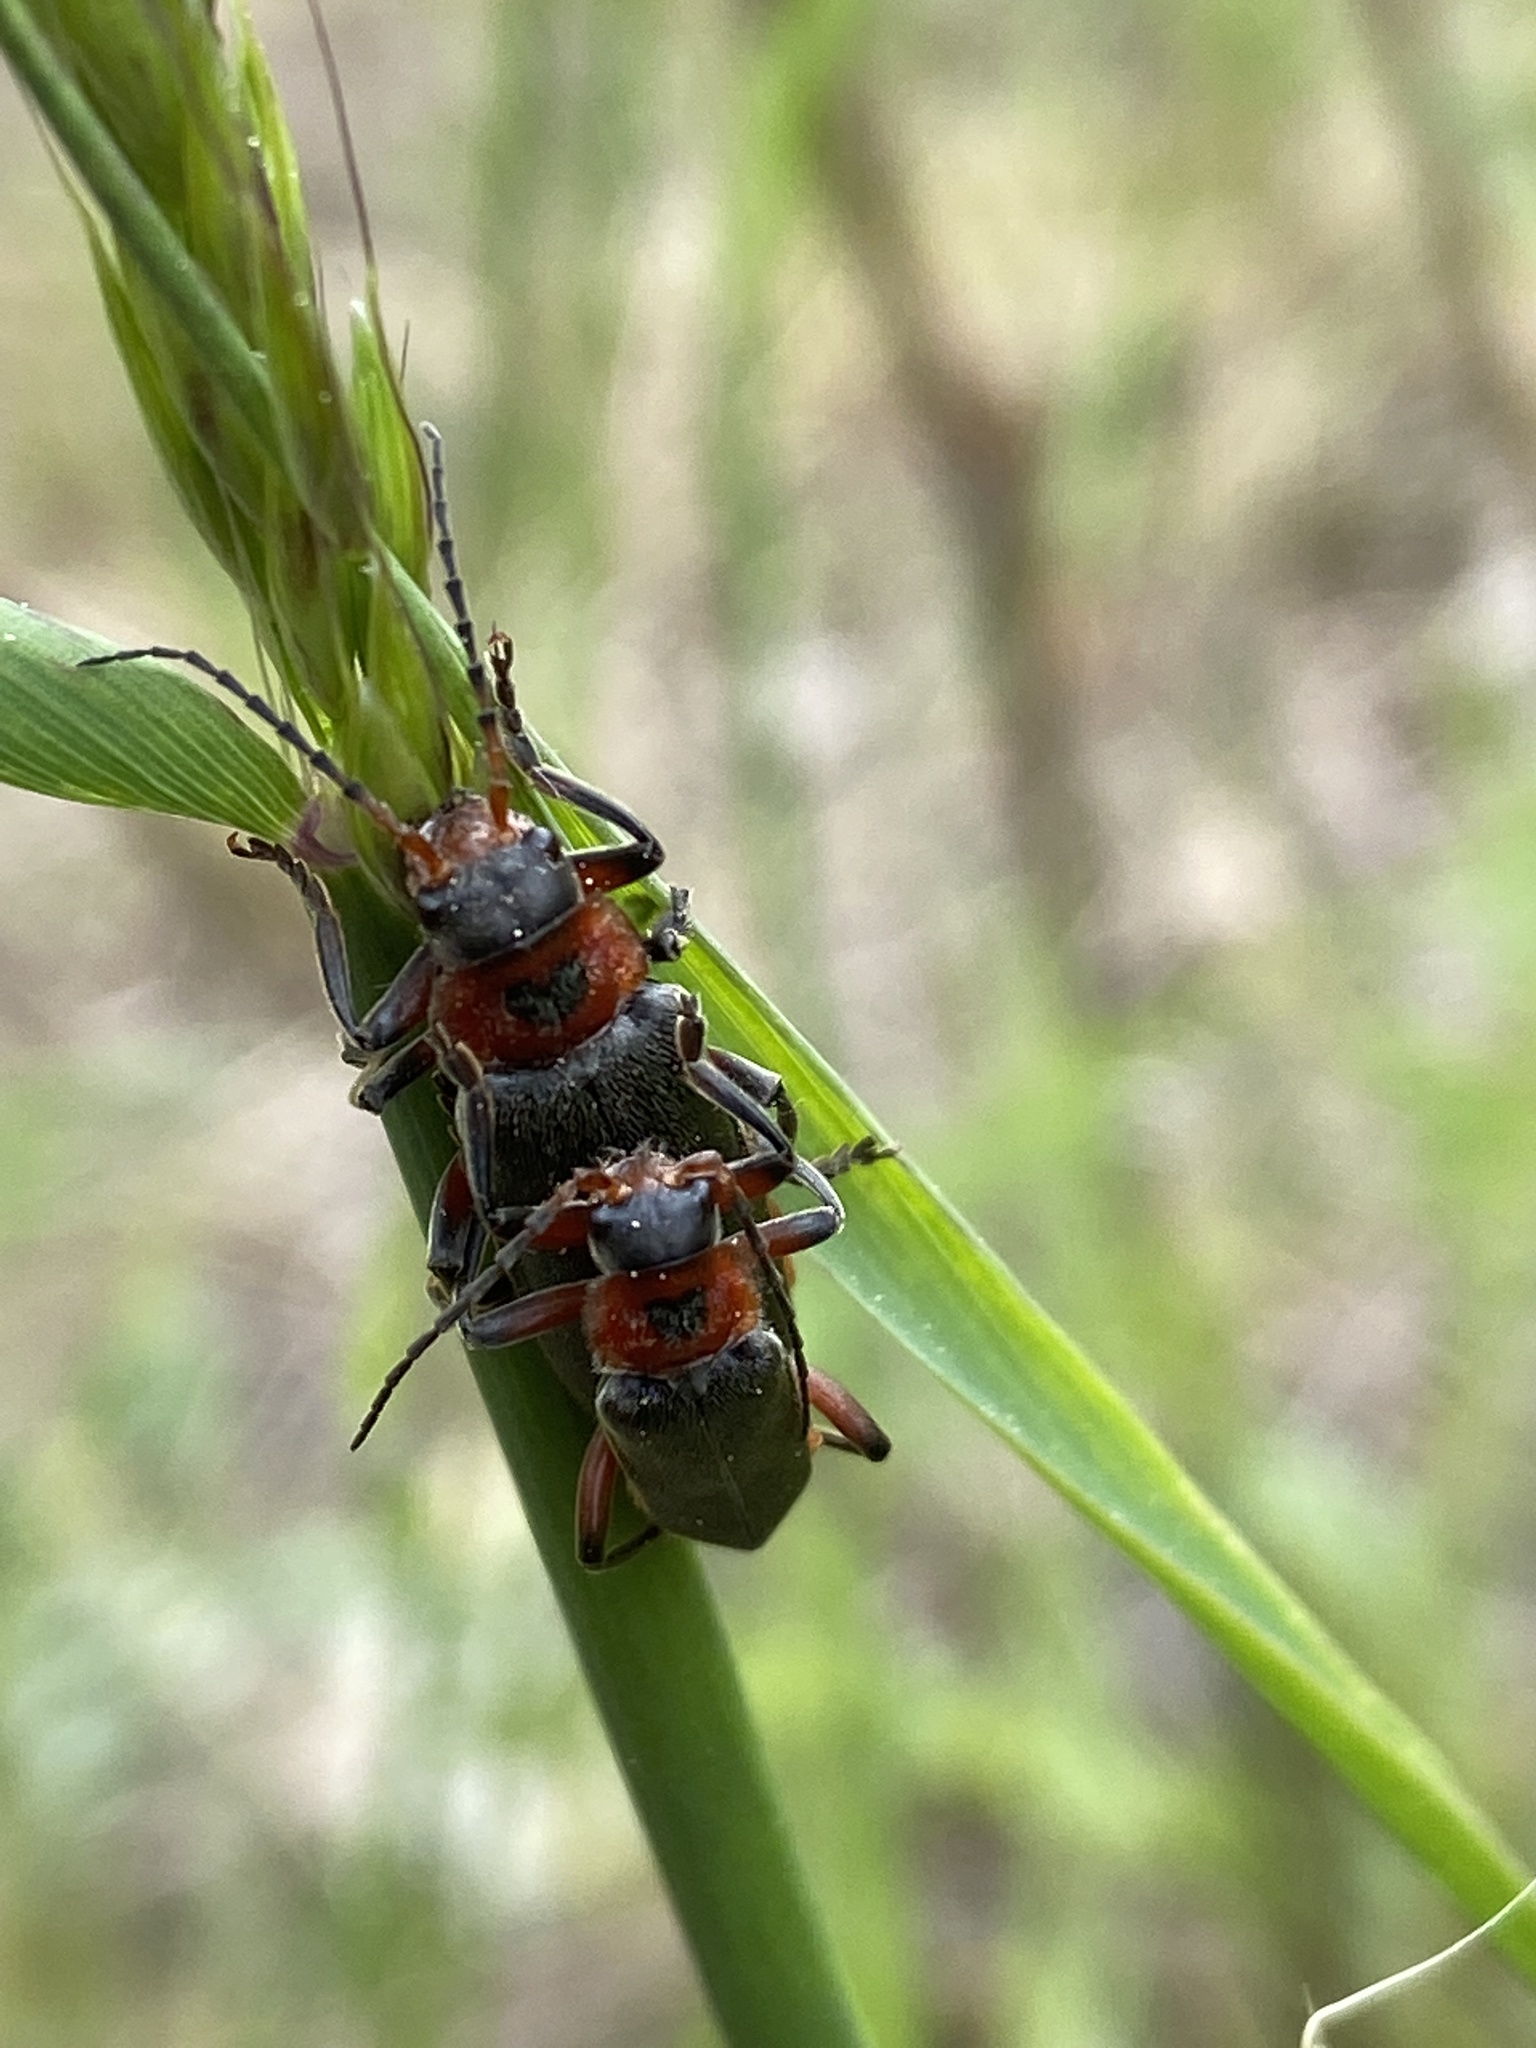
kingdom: Animalia
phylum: Arthropoda
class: Insecta
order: Coleoptera
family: Cantharidae
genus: Cantharis
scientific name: Cantharis rustica
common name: Soldier beetle
